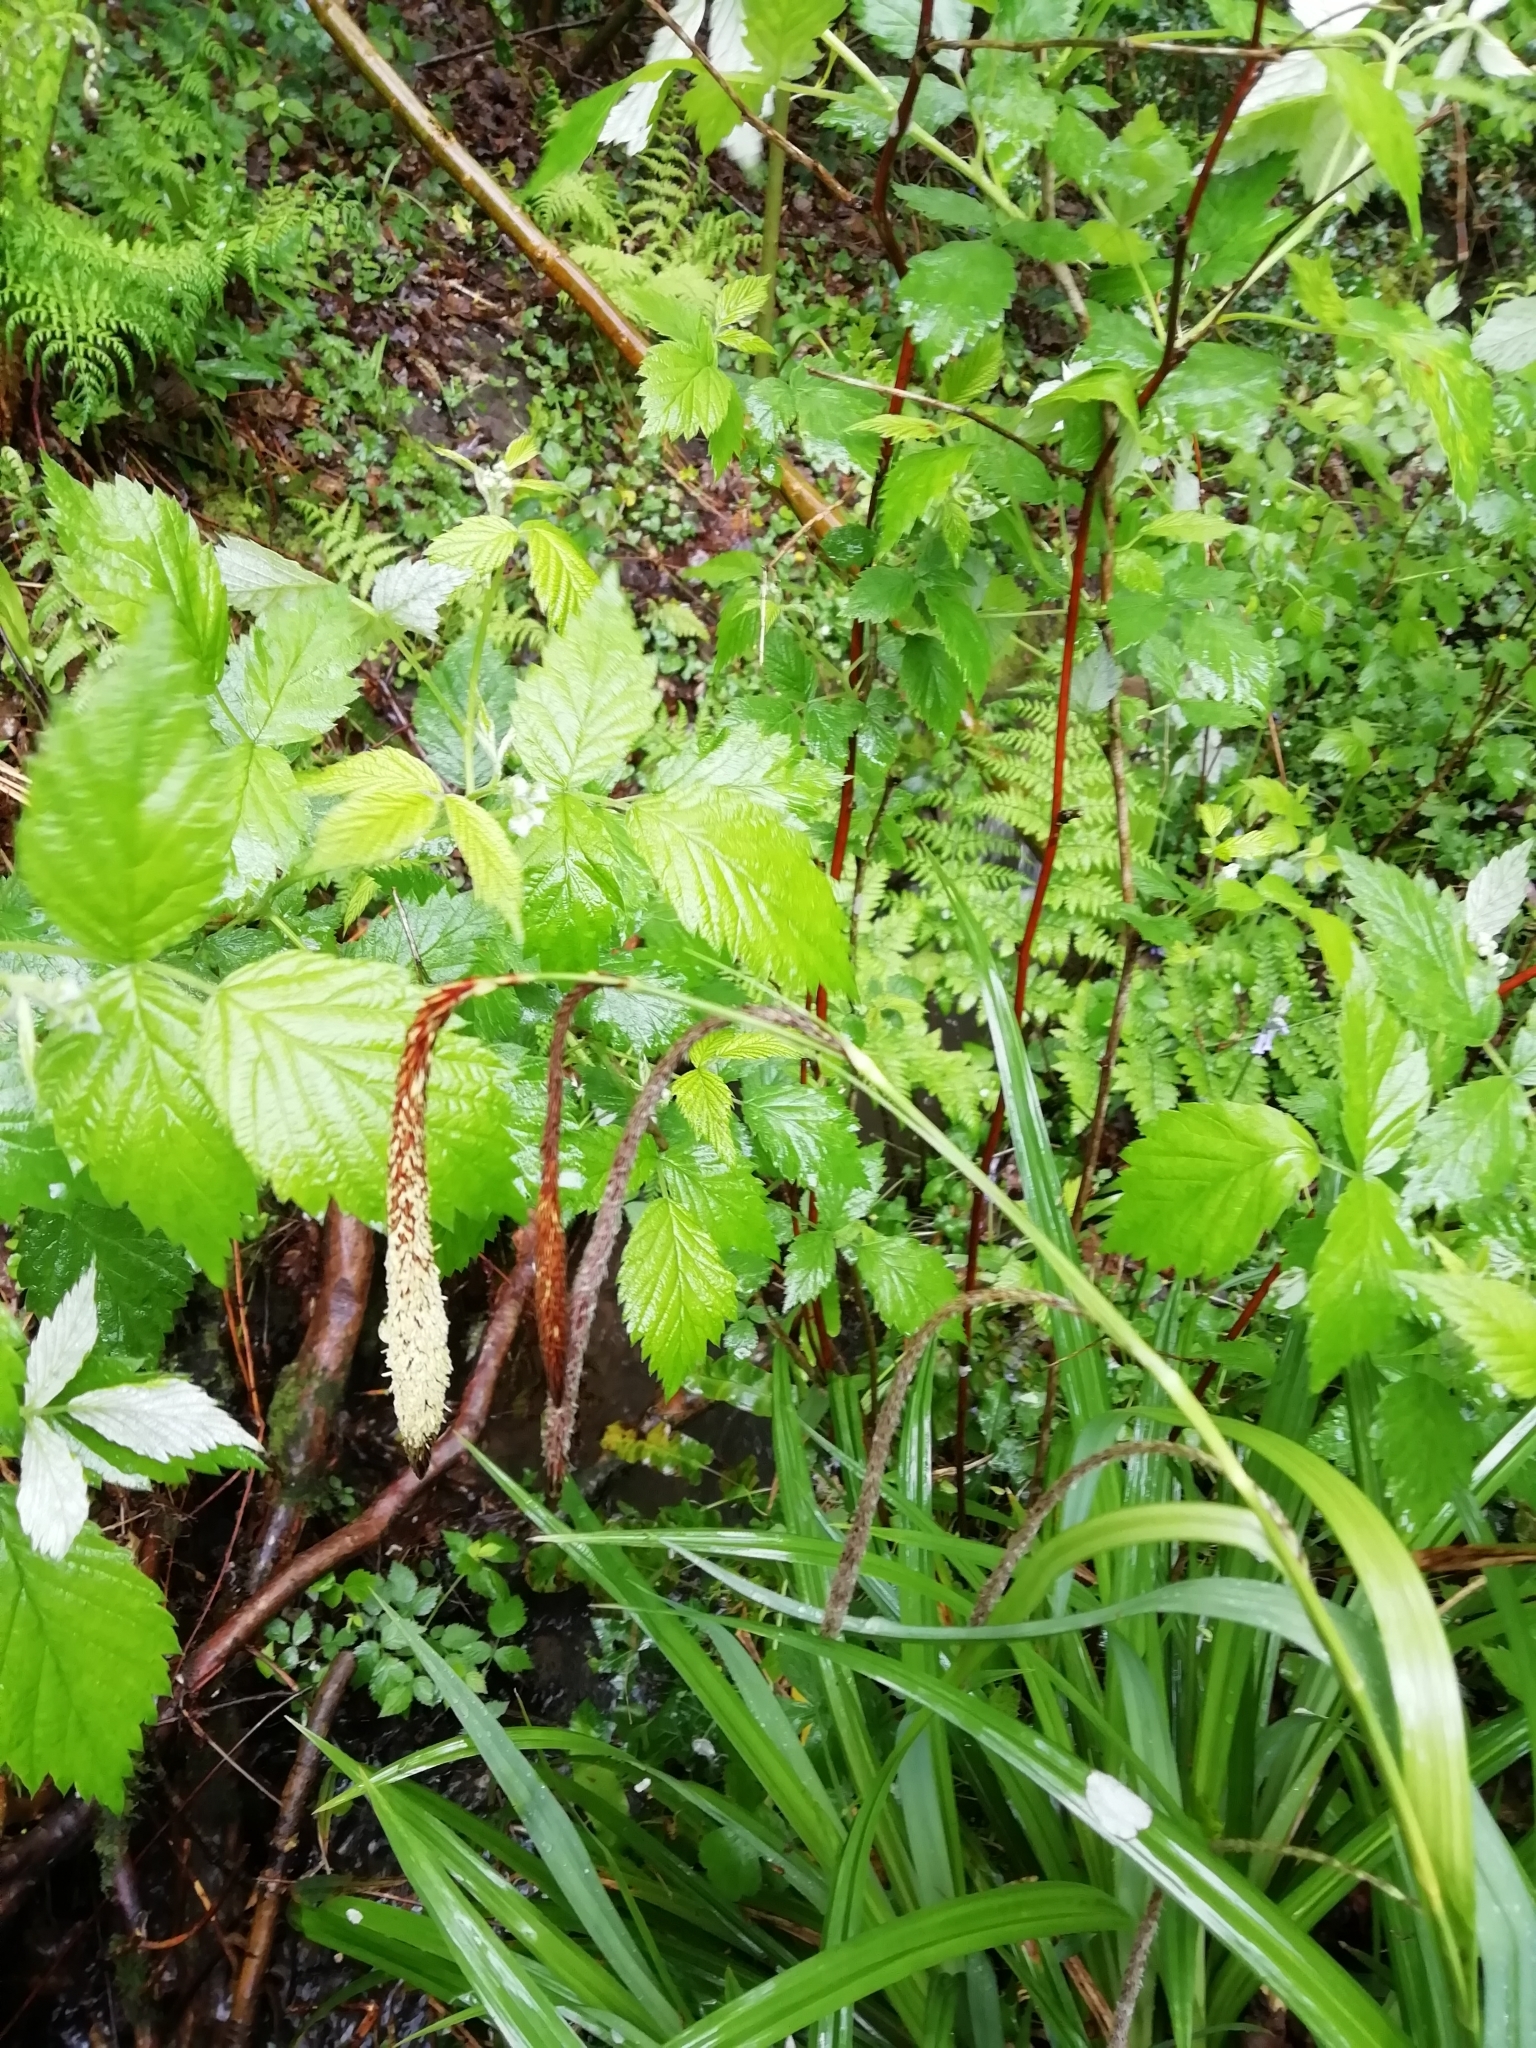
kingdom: Plantae
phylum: Tracheophyta
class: Liliopsida
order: Poales
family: Cyperaceae
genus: Carex
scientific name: Carex pendula
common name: Pendulous sedge
